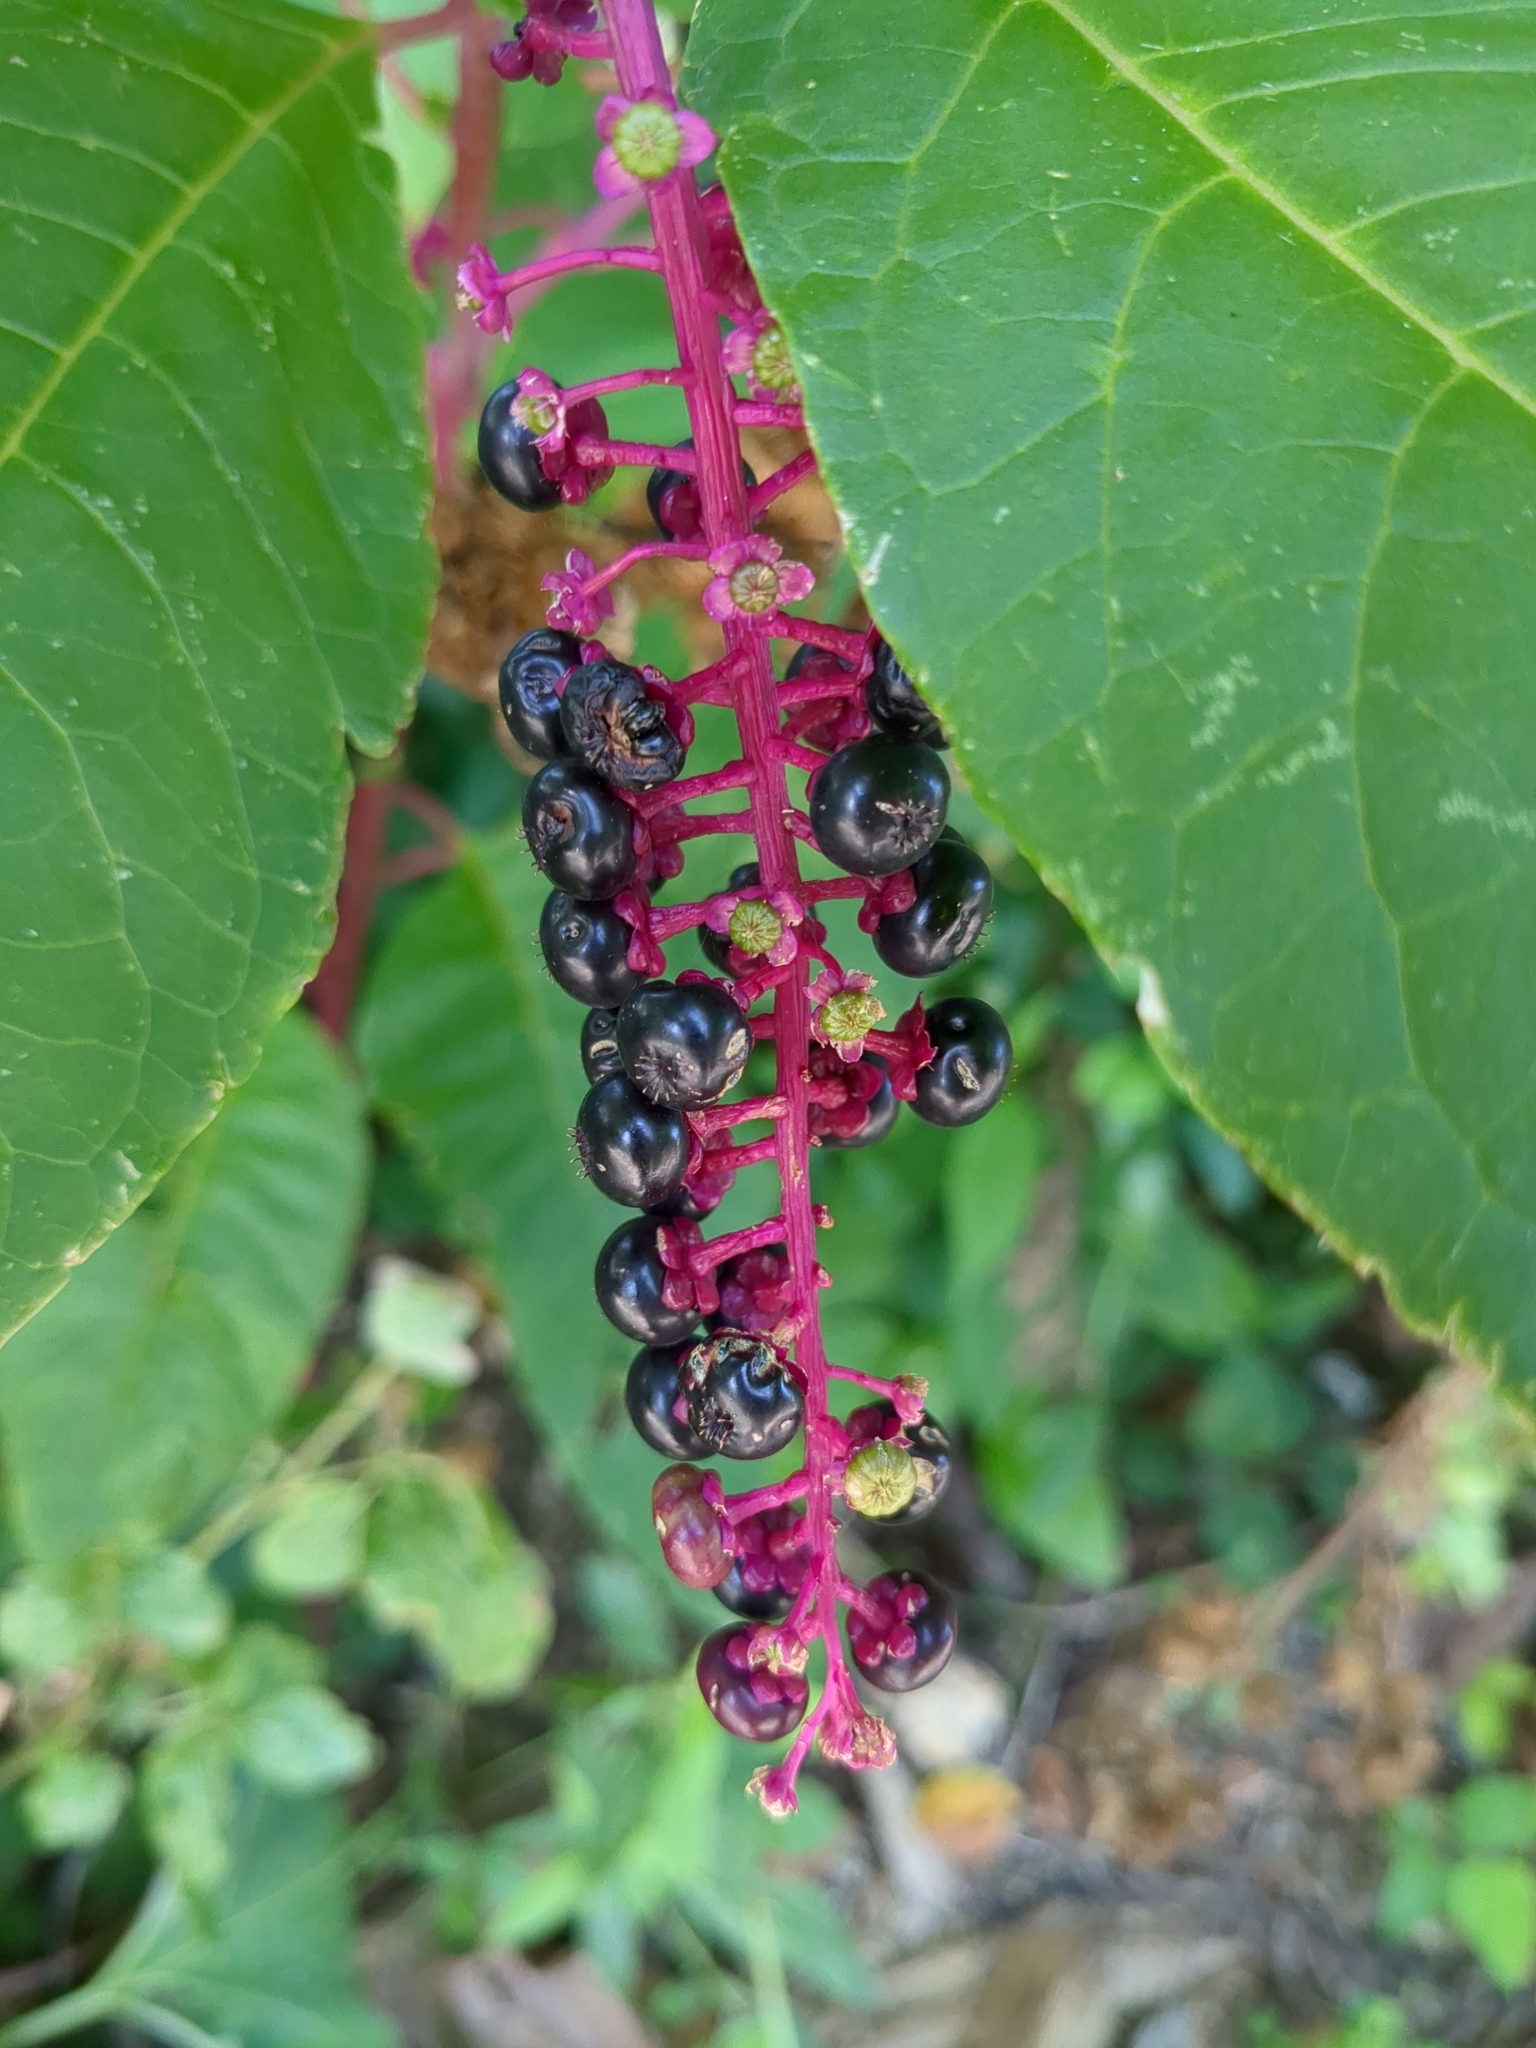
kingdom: Plantae
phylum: Tracheophyta
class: Magnoliopsida
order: Caryophyllales
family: Phytolaccaceae
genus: Phytolacca
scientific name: Phytolacca americana
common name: American pokeweed
